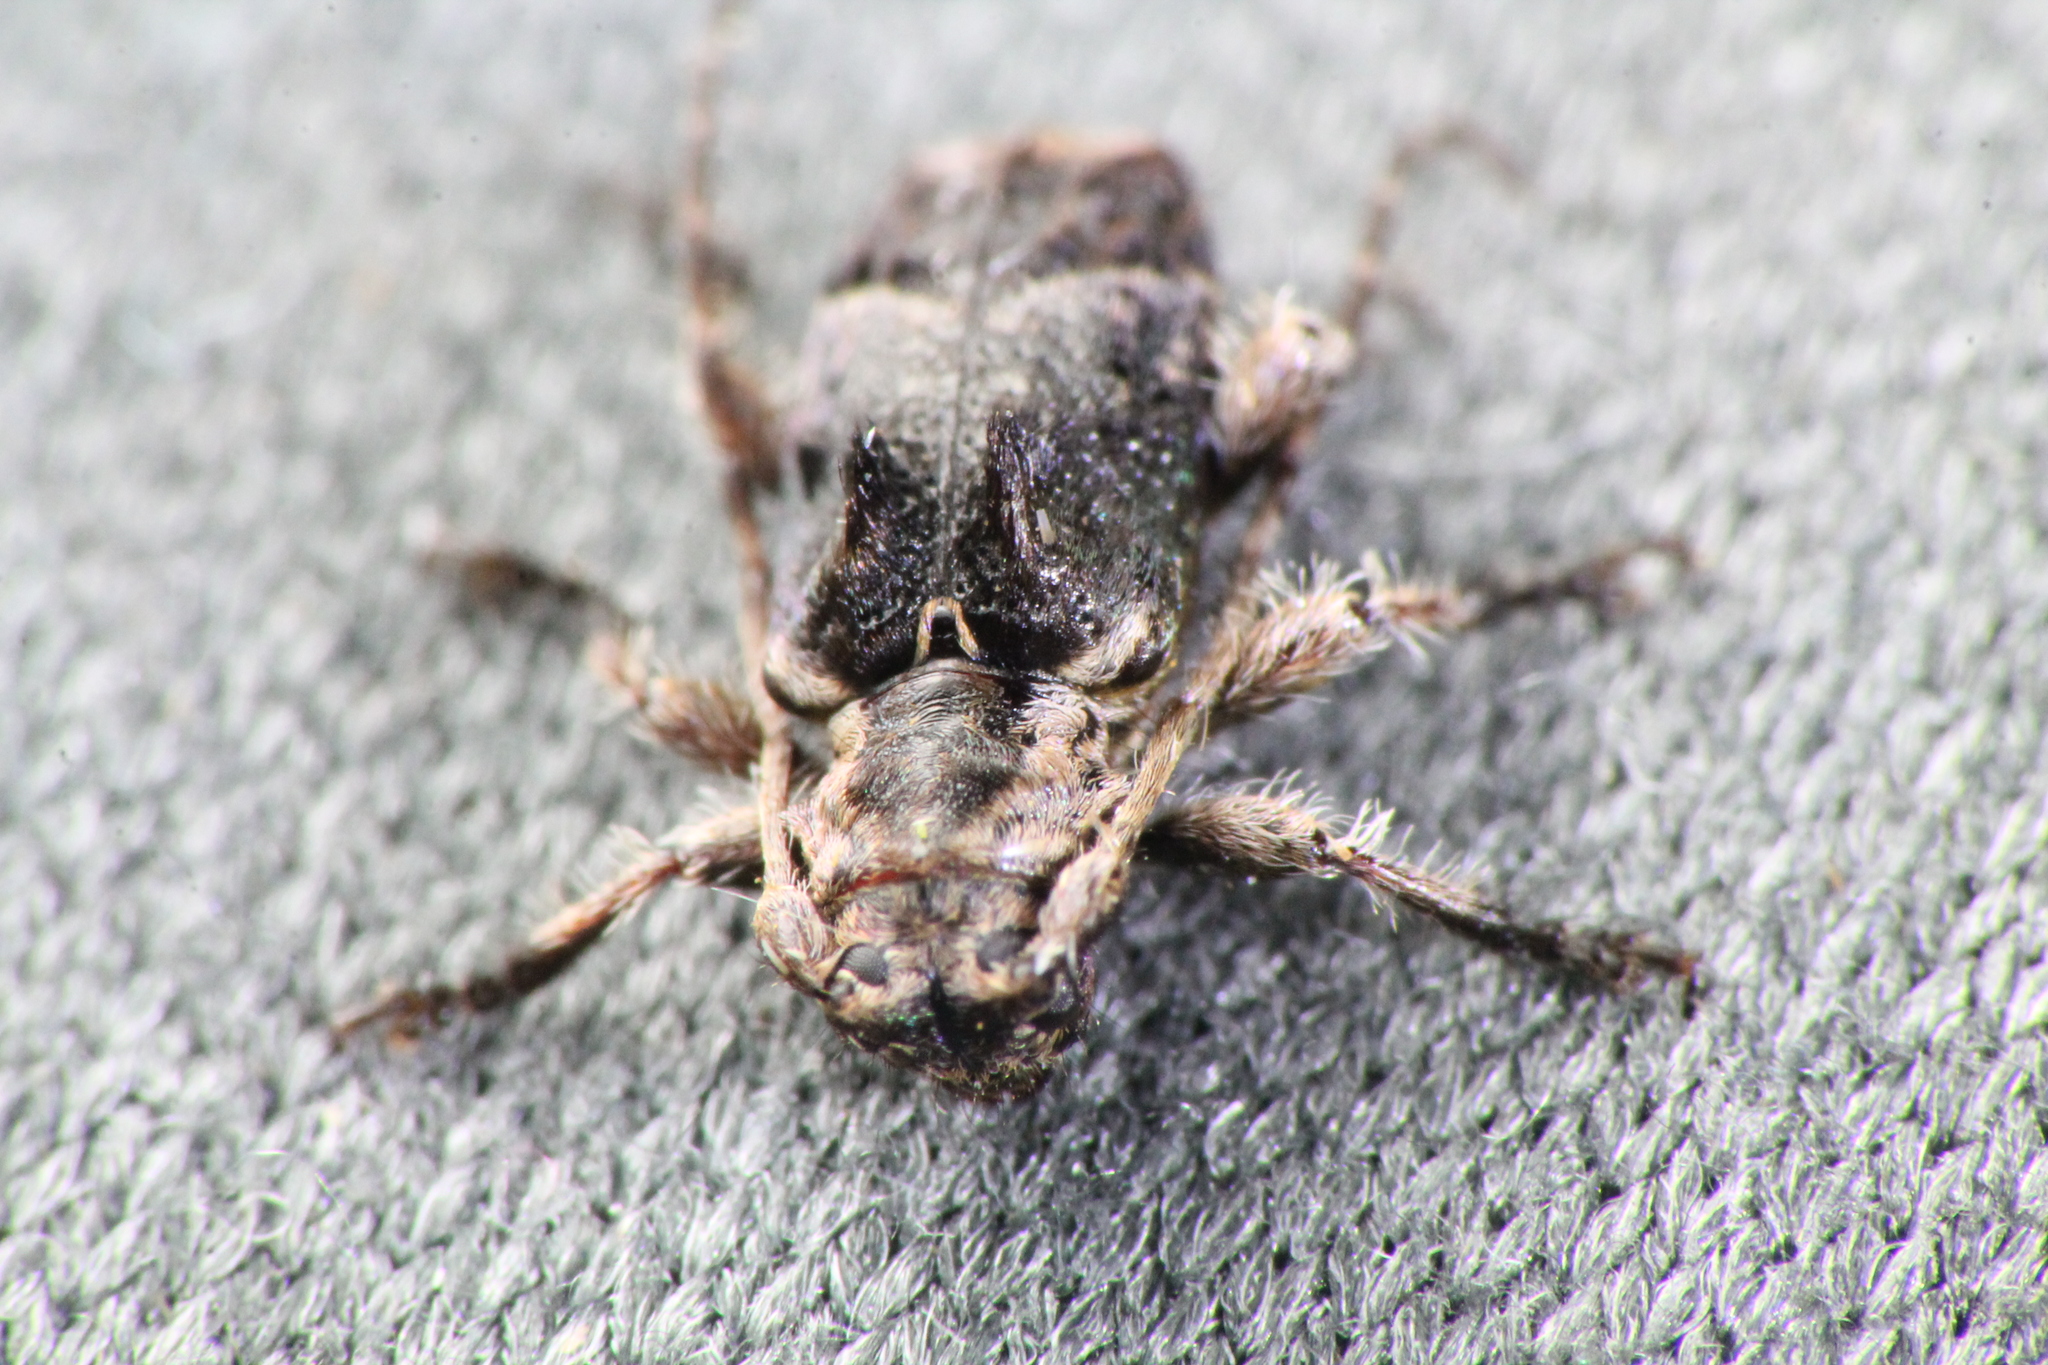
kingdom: Animalia
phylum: Arthropoda
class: Insecta
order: Coleoptera
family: Cerambycidae
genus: Hybolasius
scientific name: Hybolasius cristus
